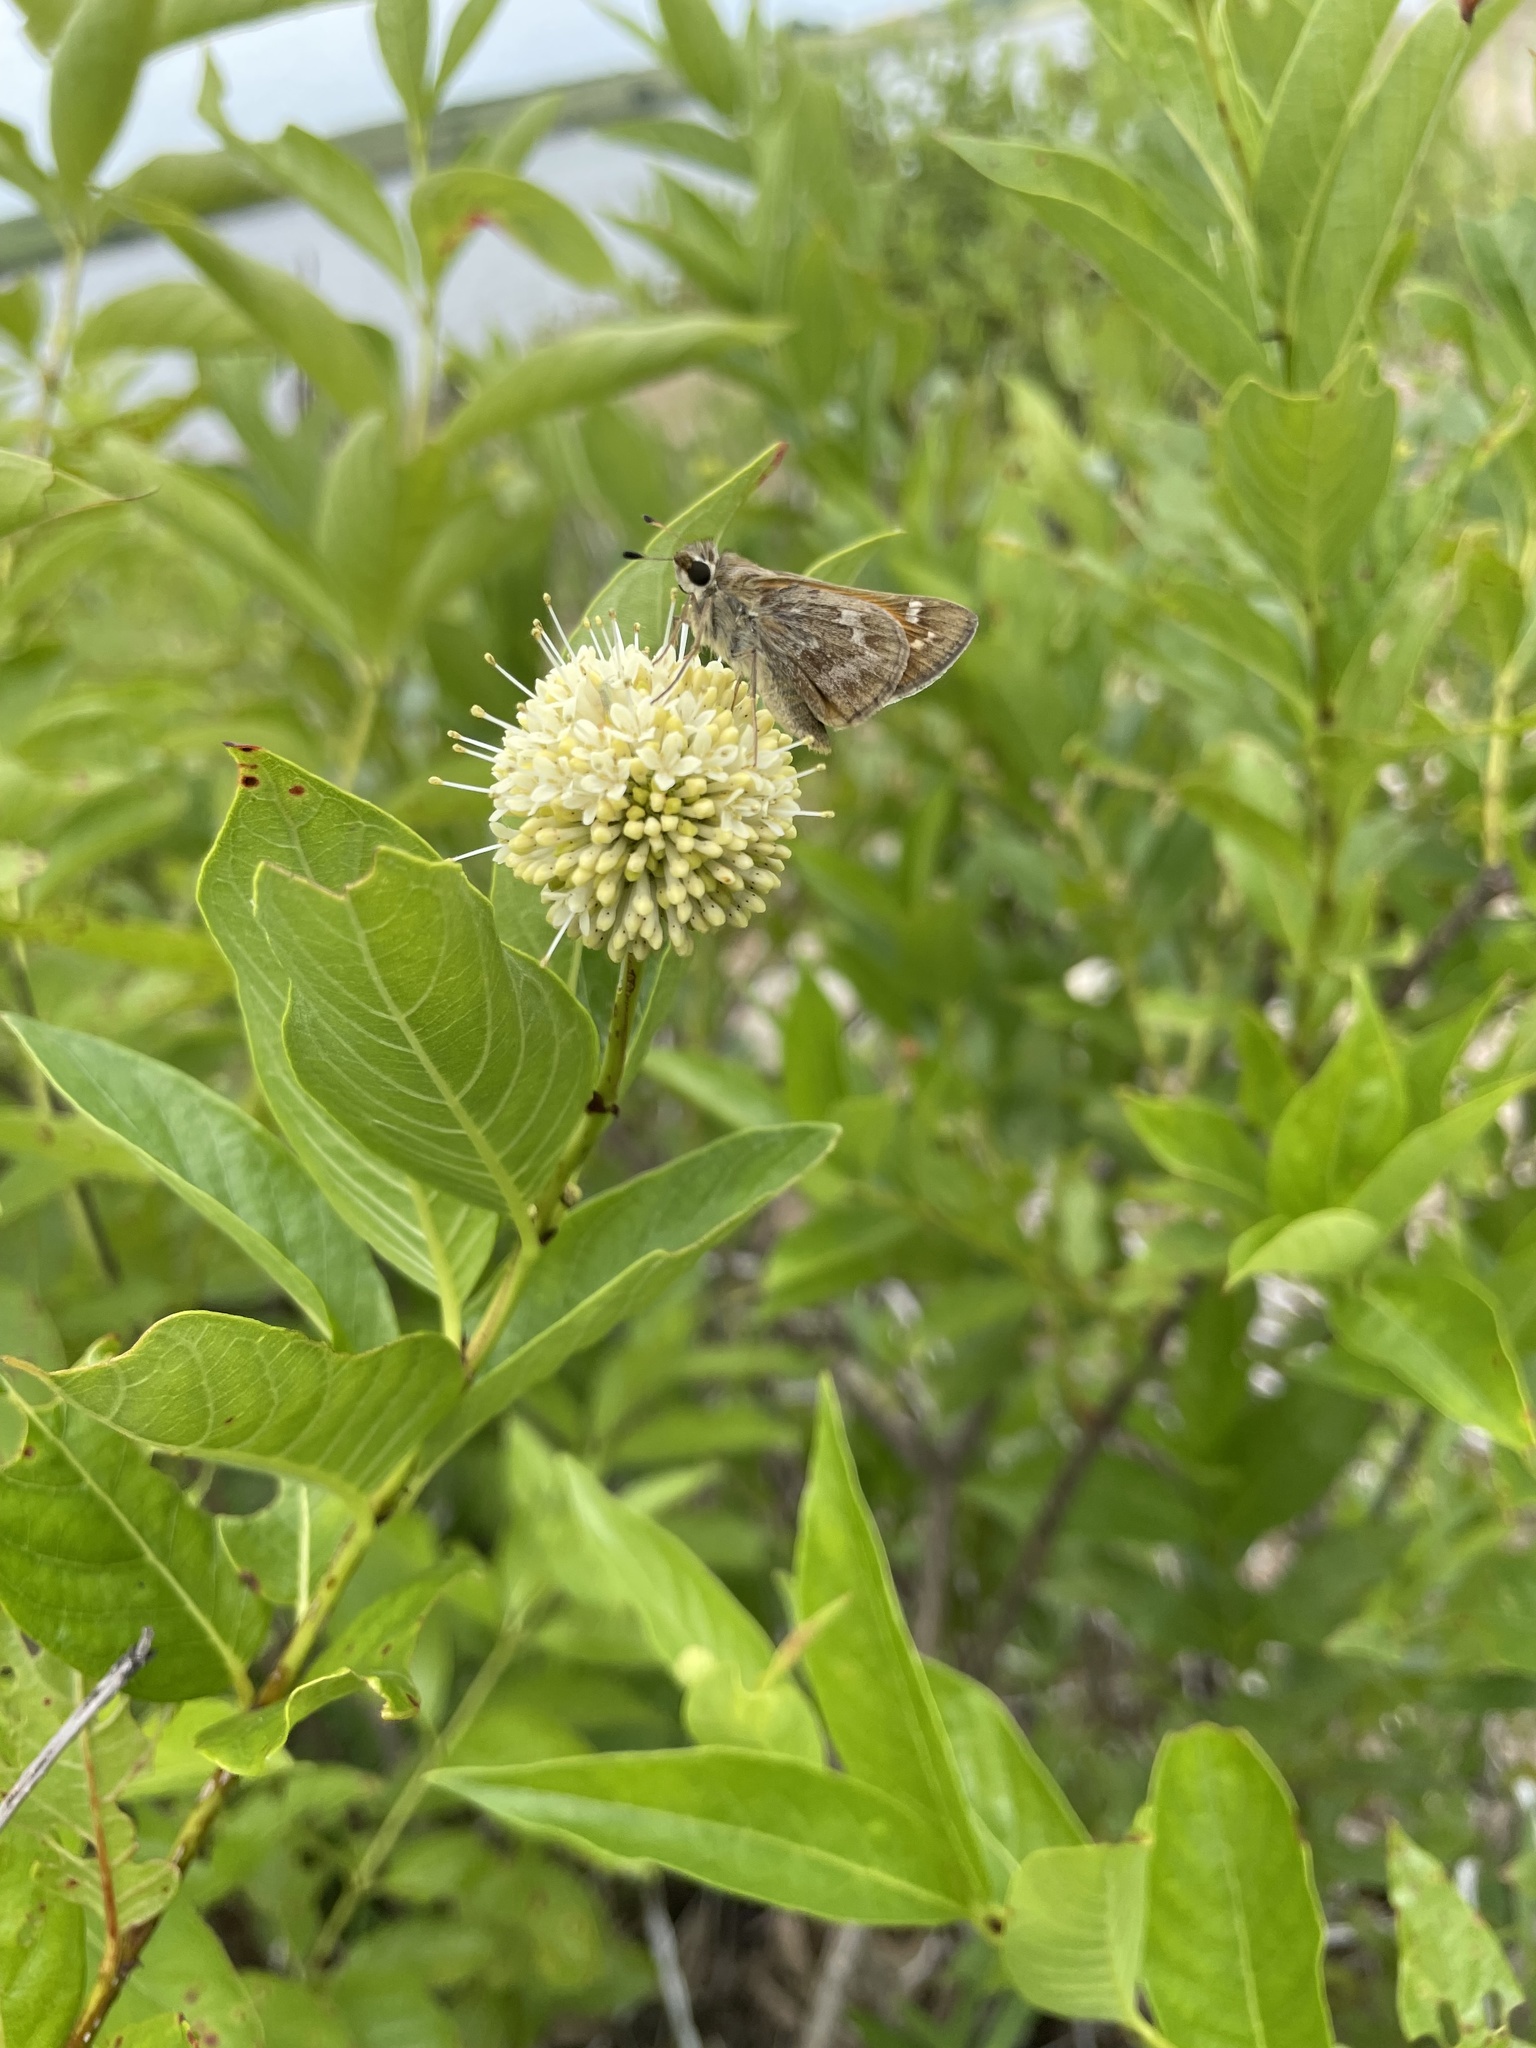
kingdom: Animalia
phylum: Arthropoda
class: Insecta
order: Lepidoptera
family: Hesperiidae
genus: Atalopedes
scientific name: Atalopedes
